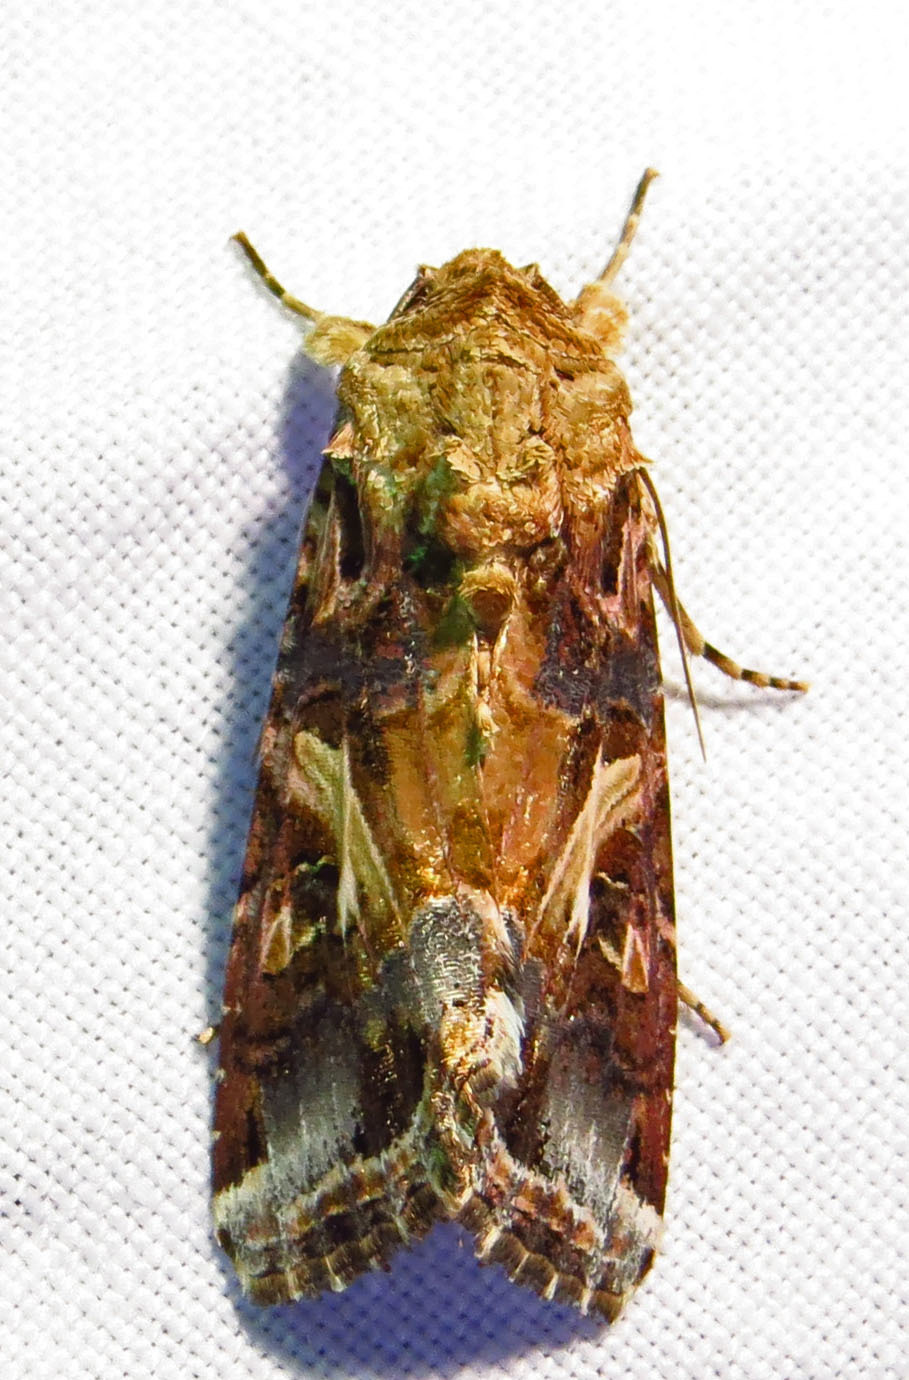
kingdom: Animalia
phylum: Arthropoda
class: Insecta
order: Lepidoptera
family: Noctuidae
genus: Spodoptera
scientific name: Spodoptera ornithogalli
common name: Yellow-striped armyworm
